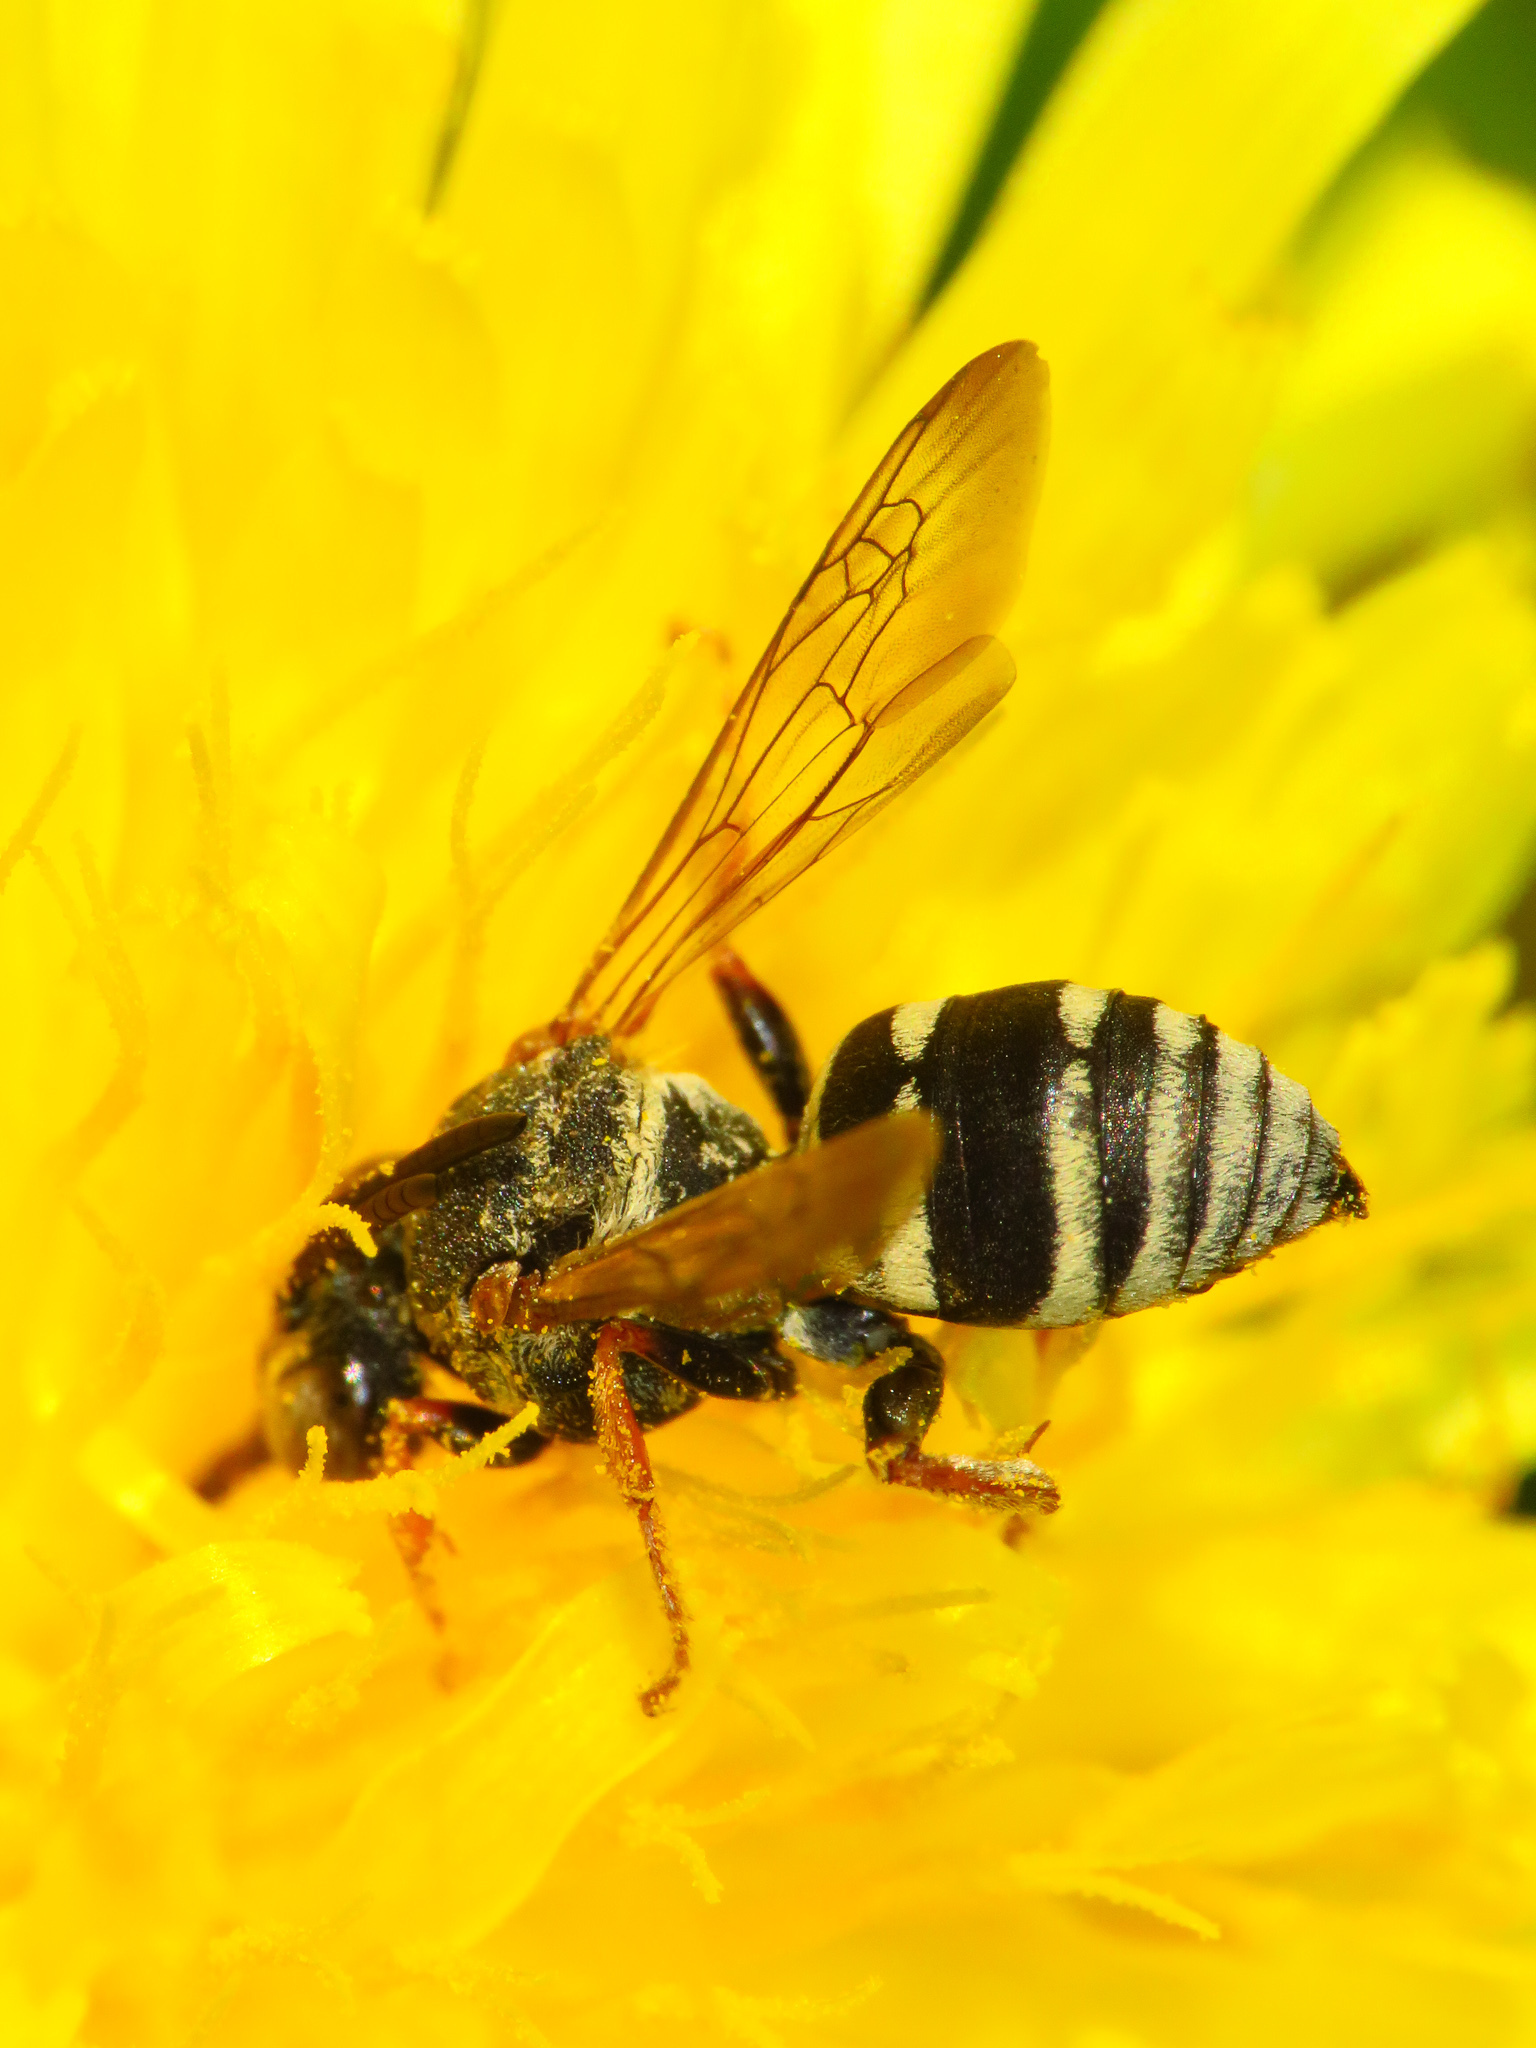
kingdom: Animalia
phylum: Arthropoda
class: Insecta
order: Hymenoptera
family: Apidae
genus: Epeolus
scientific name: Epeolus autumnalis
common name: Autumnal cellophane-cuckoo
